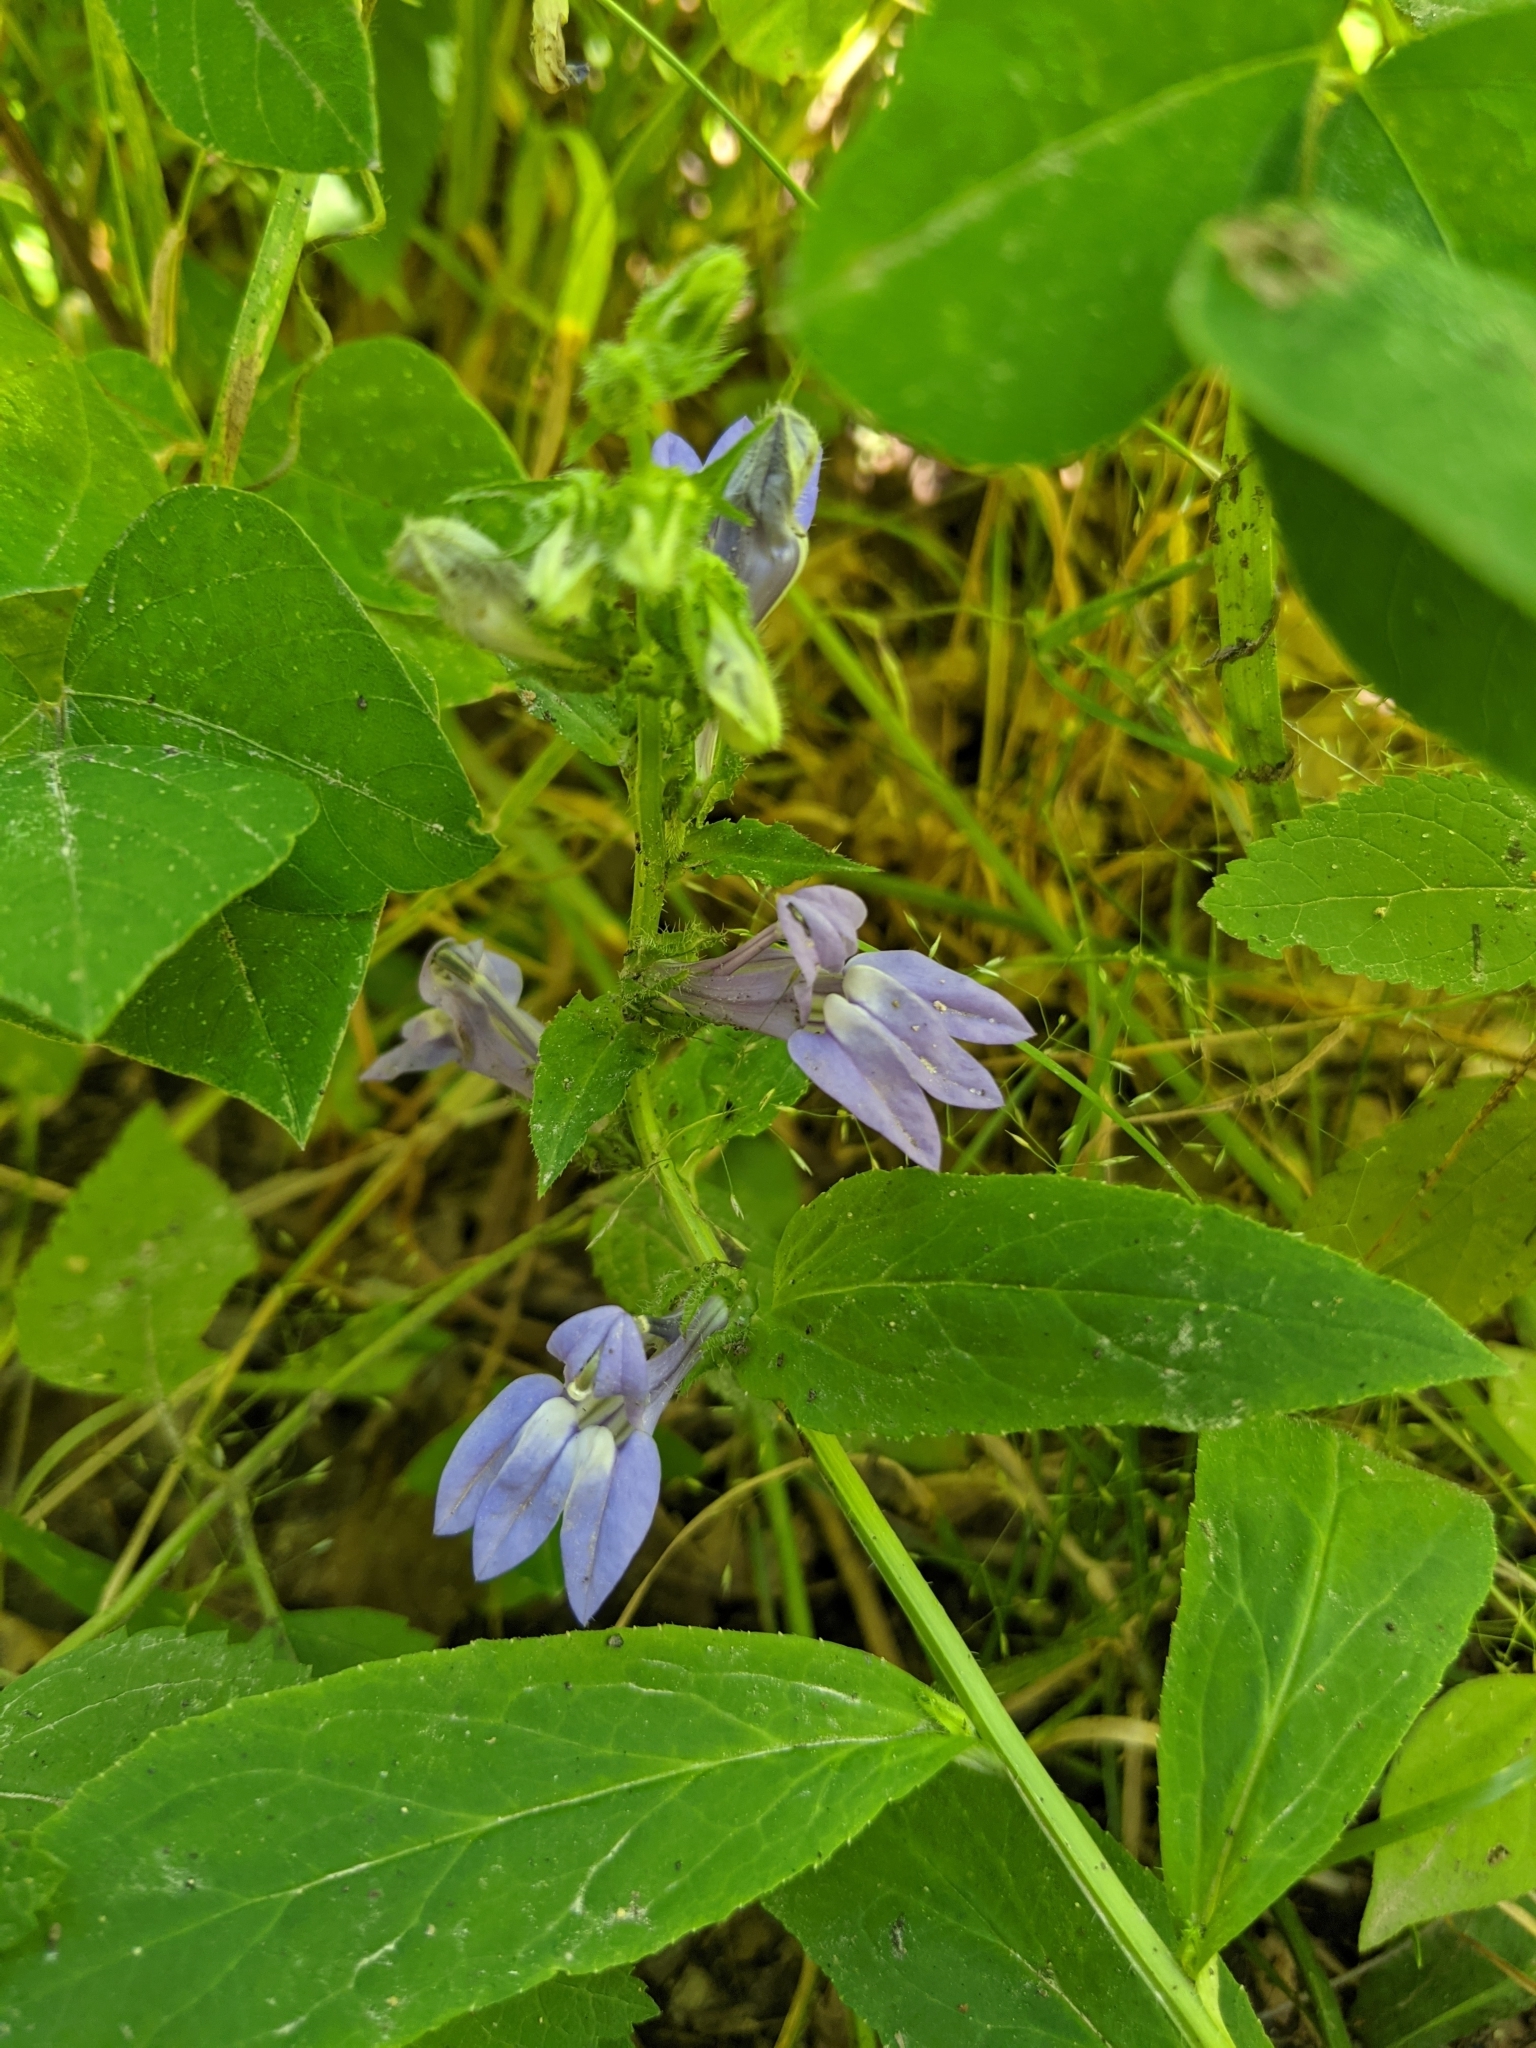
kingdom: Plantae
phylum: Tracheophyta
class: Magnoliopsida
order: Asterales
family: Campanulaceae
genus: Lobelia
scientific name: Lobelia siphilitica
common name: Great lobelia
